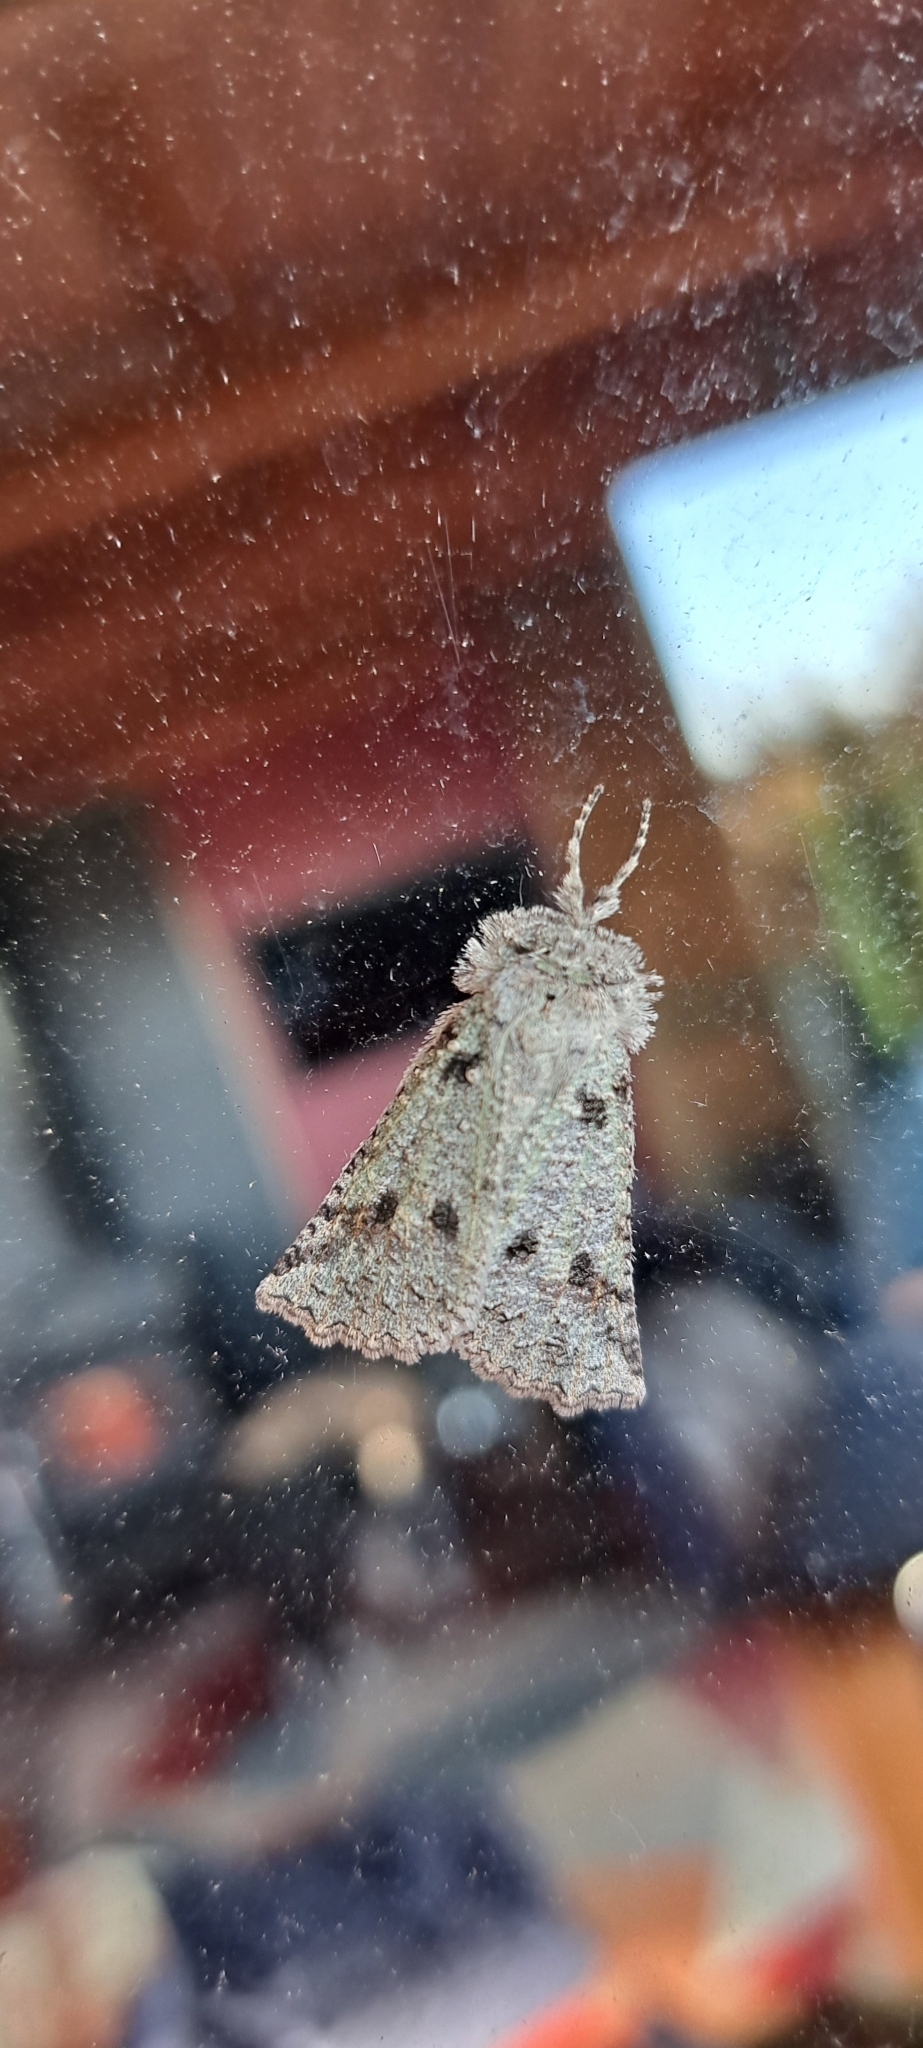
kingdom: Animalia
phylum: Arthropoda
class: Insecta
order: Lepidoptera
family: Geometridae
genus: Declana
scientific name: Declana floccosa
